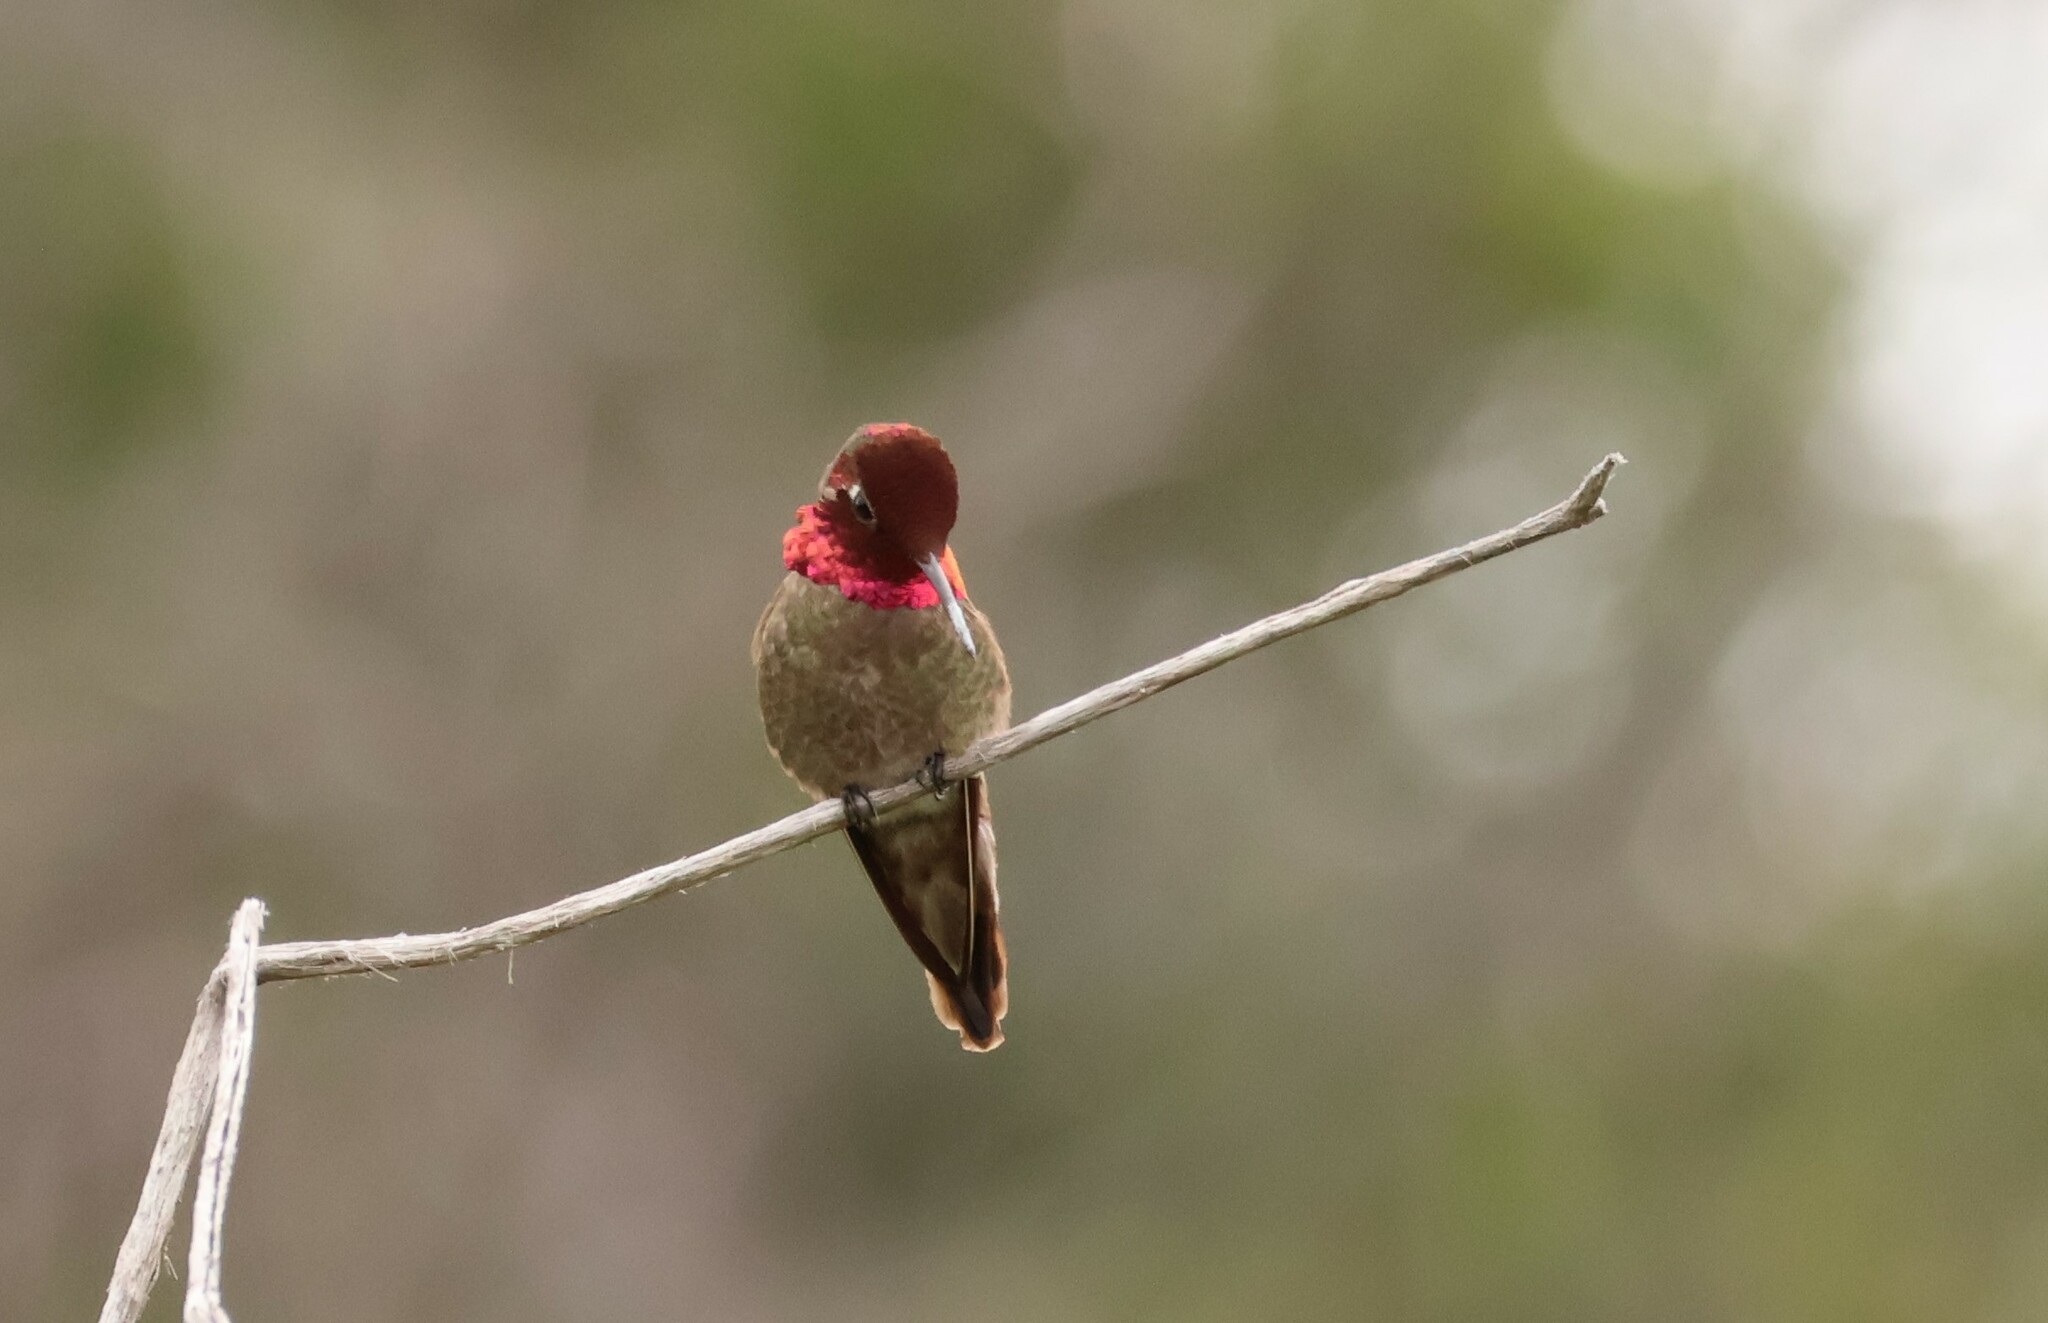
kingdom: Animalia
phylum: Chordata
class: Aves
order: Apodiformes
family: Trochilidae
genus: Calypte
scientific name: Calypte anna
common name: Anna's hummingbird
